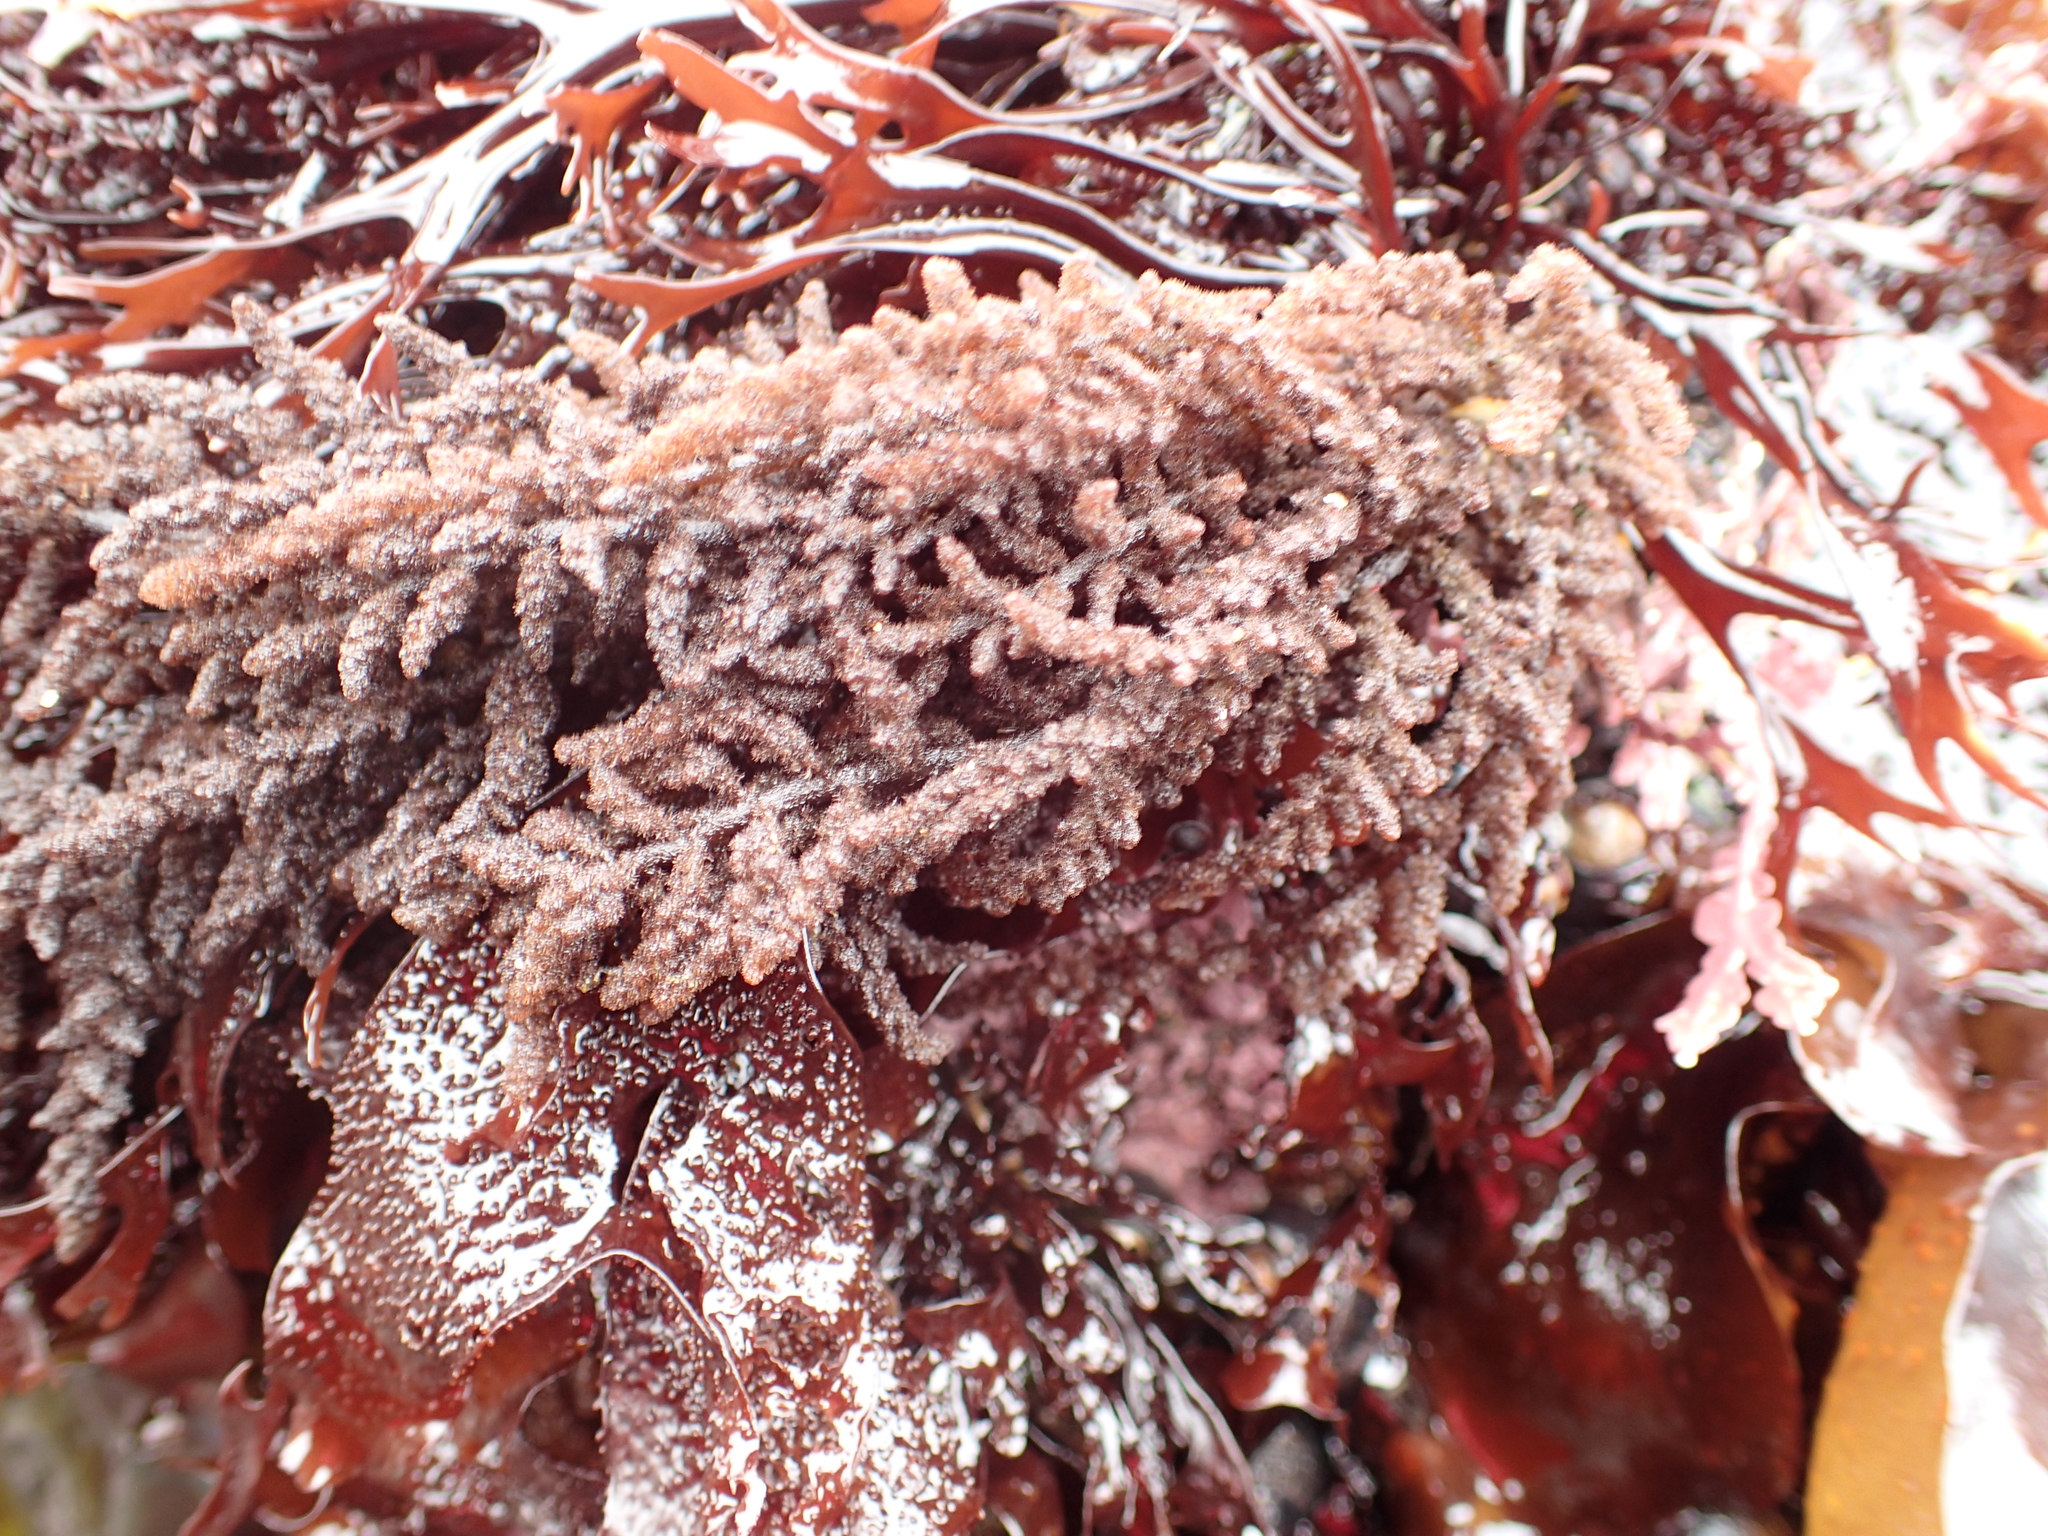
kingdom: Plantae
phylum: Rhodophyta
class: Florideophyceae
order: Ceramiales
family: Callithamniaceae
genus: Callithamnion
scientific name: Callithamnion pikeanum
